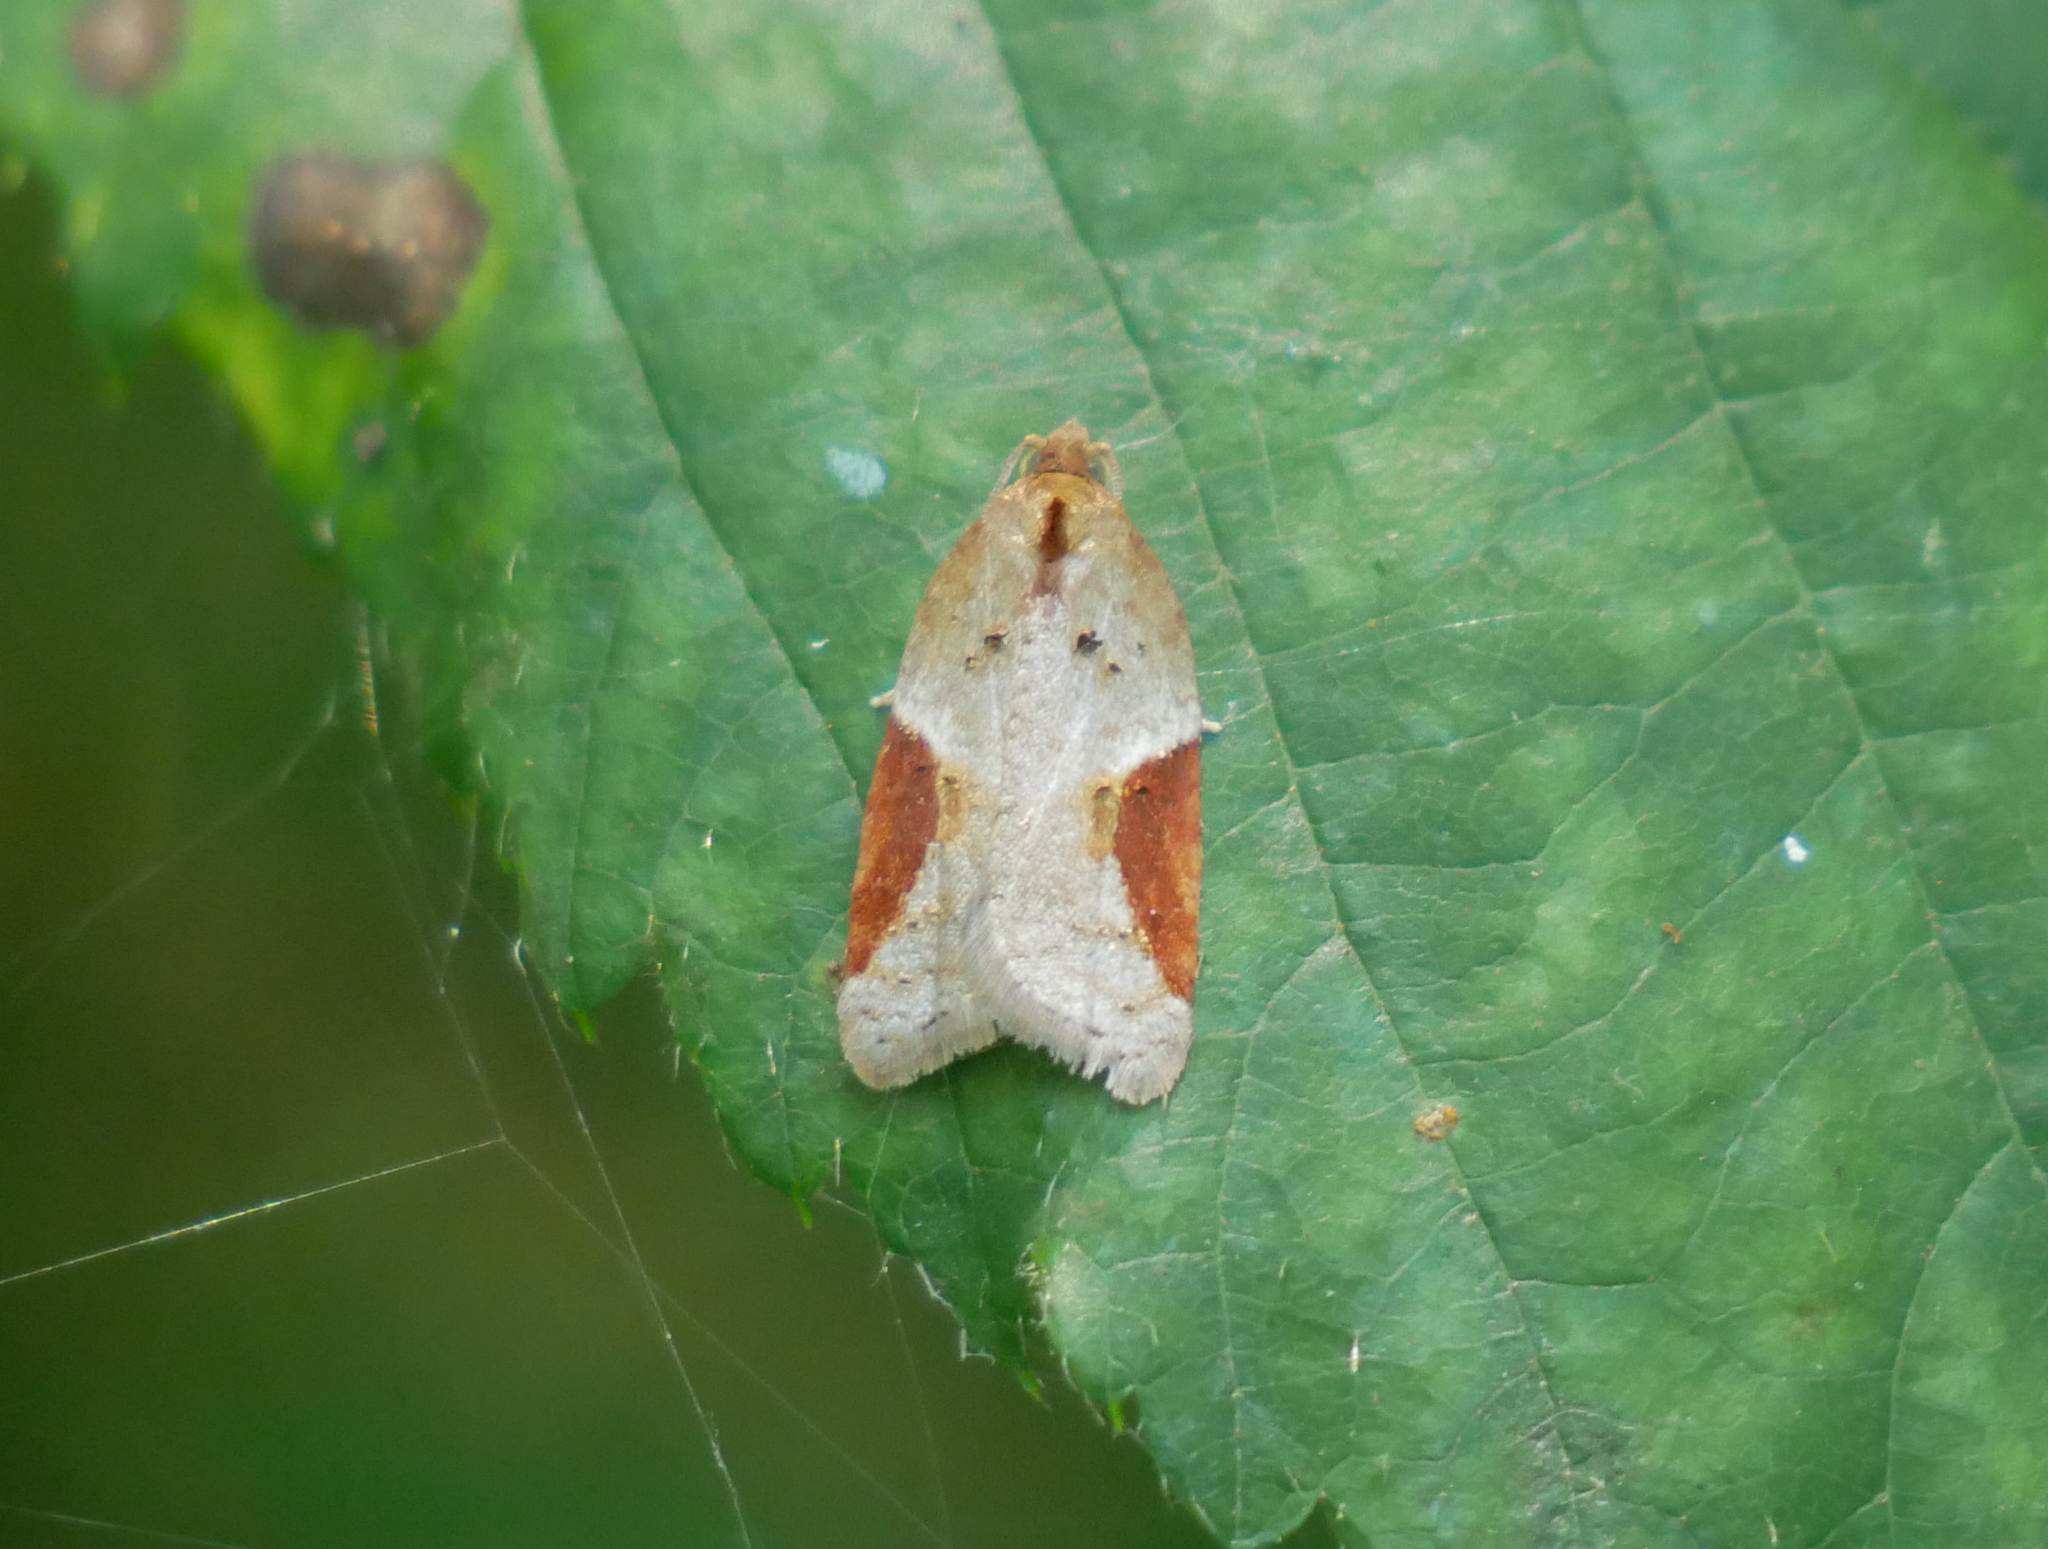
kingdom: Animalia
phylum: Arthropoda
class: Insecta
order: Lepidoptera
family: Tortricidae
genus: Acleris
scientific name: Acleris laterana
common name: Dark-triangle button
